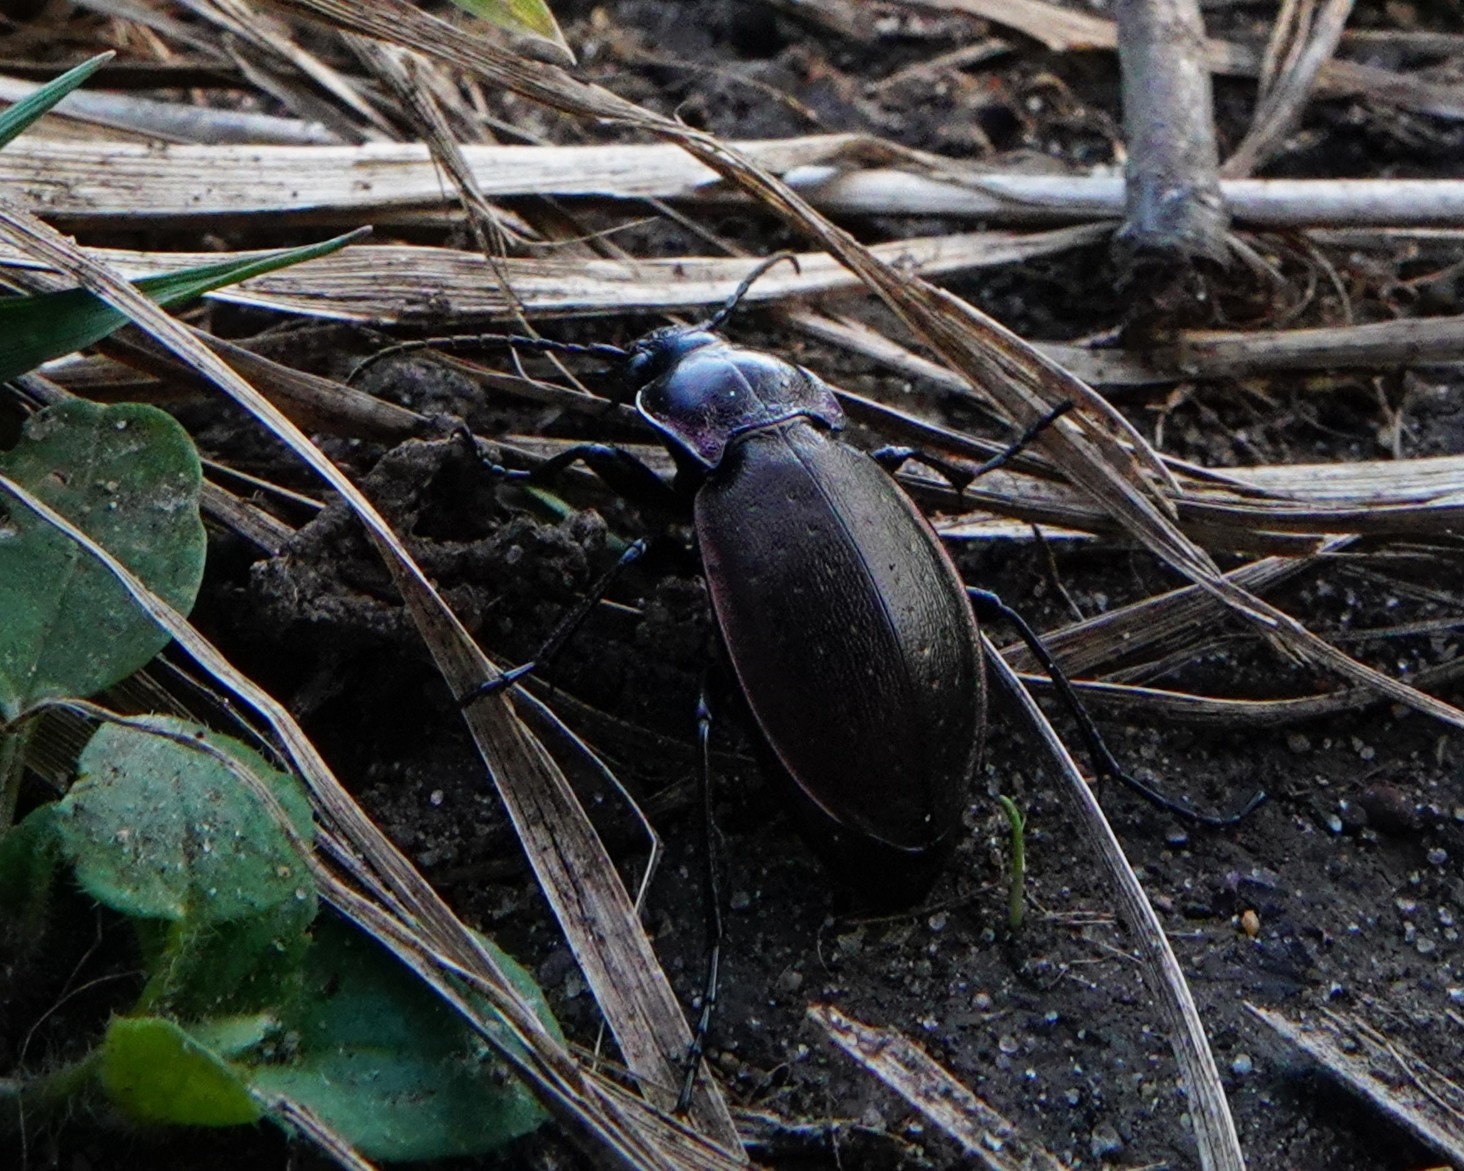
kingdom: Animalia
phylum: Arthropoda
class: Insecta
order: Coleoptera
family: Carabidae
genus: Carabus
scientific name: Carabus nemoralis
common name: European ground beetle
